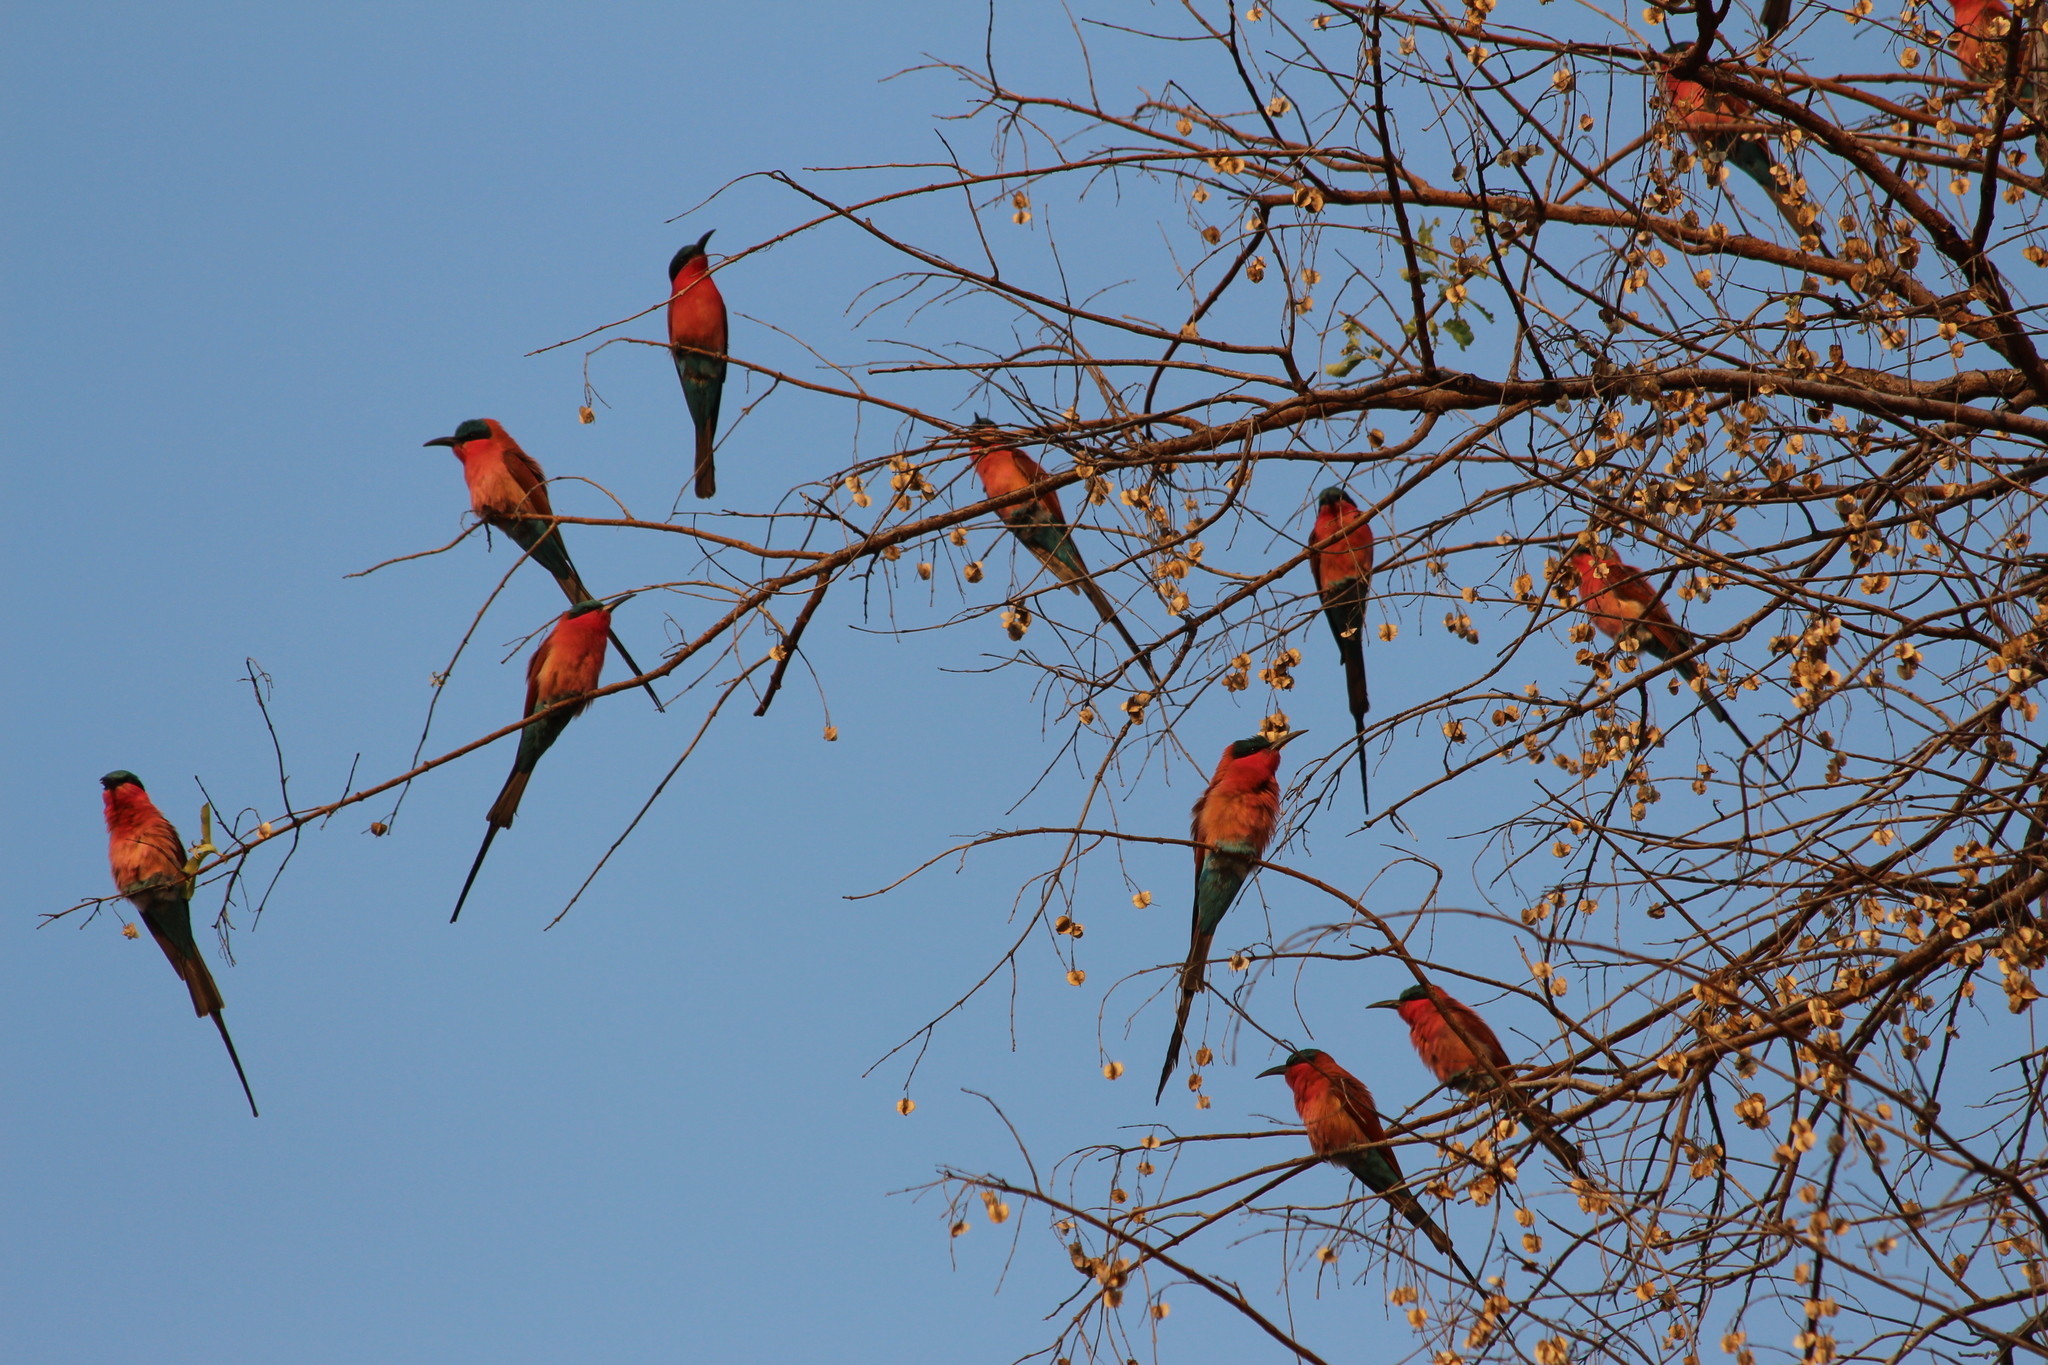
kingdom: Animalia
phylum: Chordata
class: Aves
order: Coraciiformes
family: Meropidae
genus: Merops
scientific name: Merops nubicoides
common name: Southern carmine bee-eater
